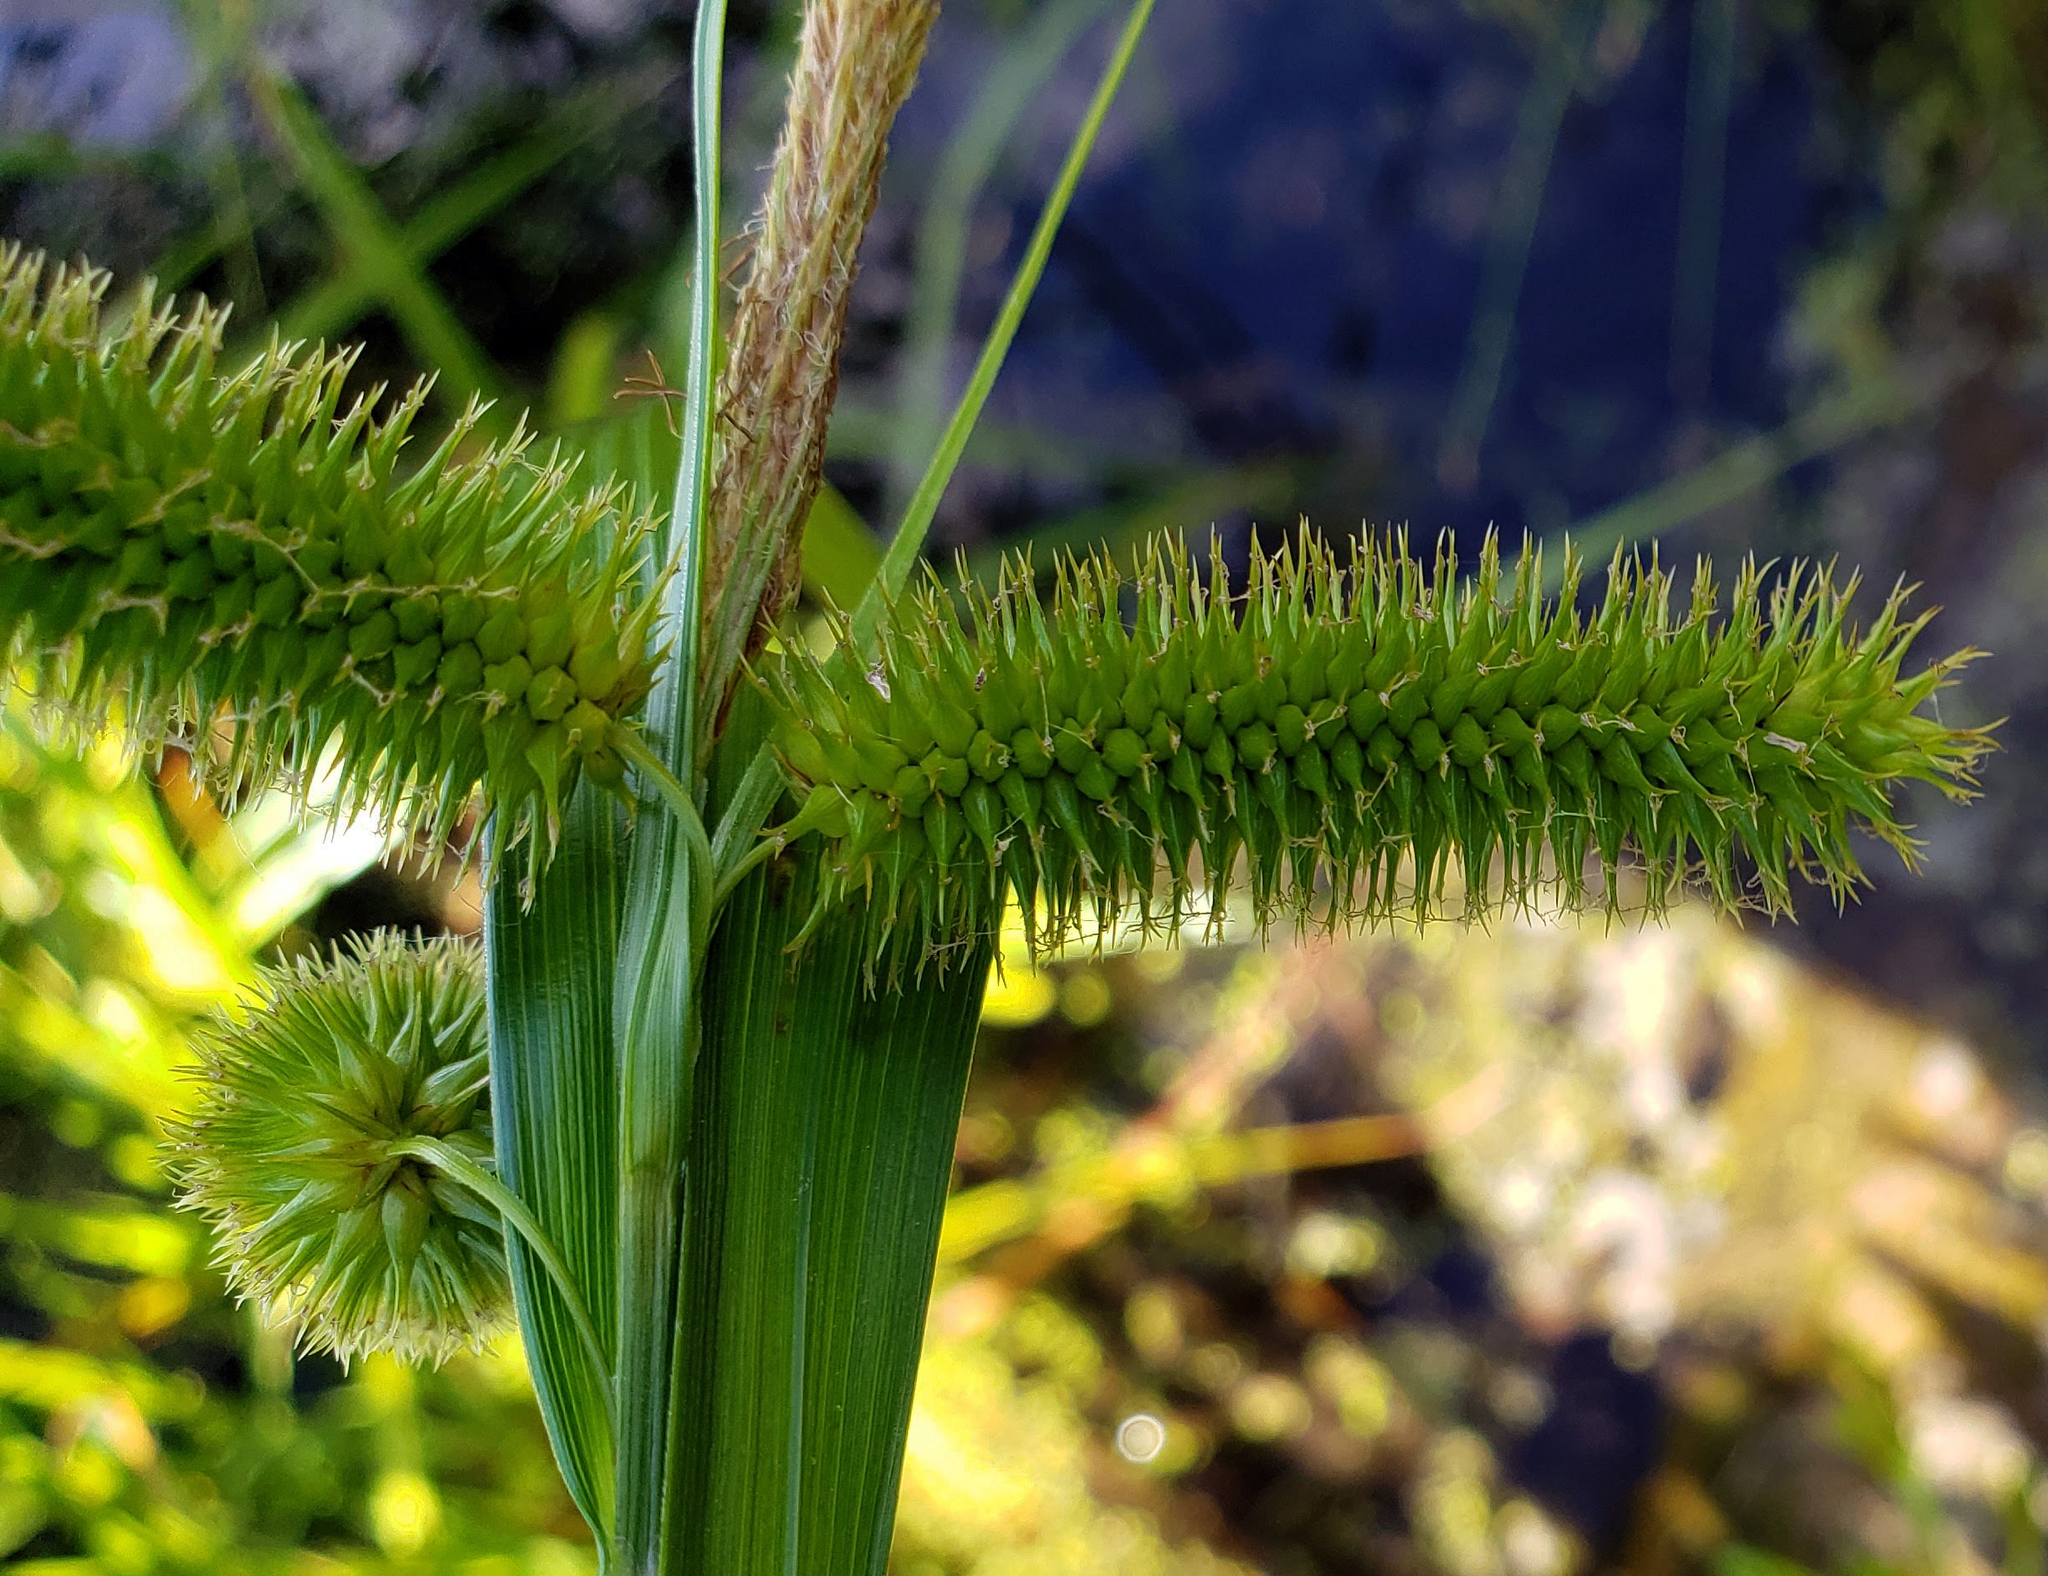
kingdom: Plantae
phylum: Tracheophyta
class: Liliopsida
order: Poales
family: Cyperaceae
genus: Carex
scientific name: Carex comosa
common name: Bristly sedge
